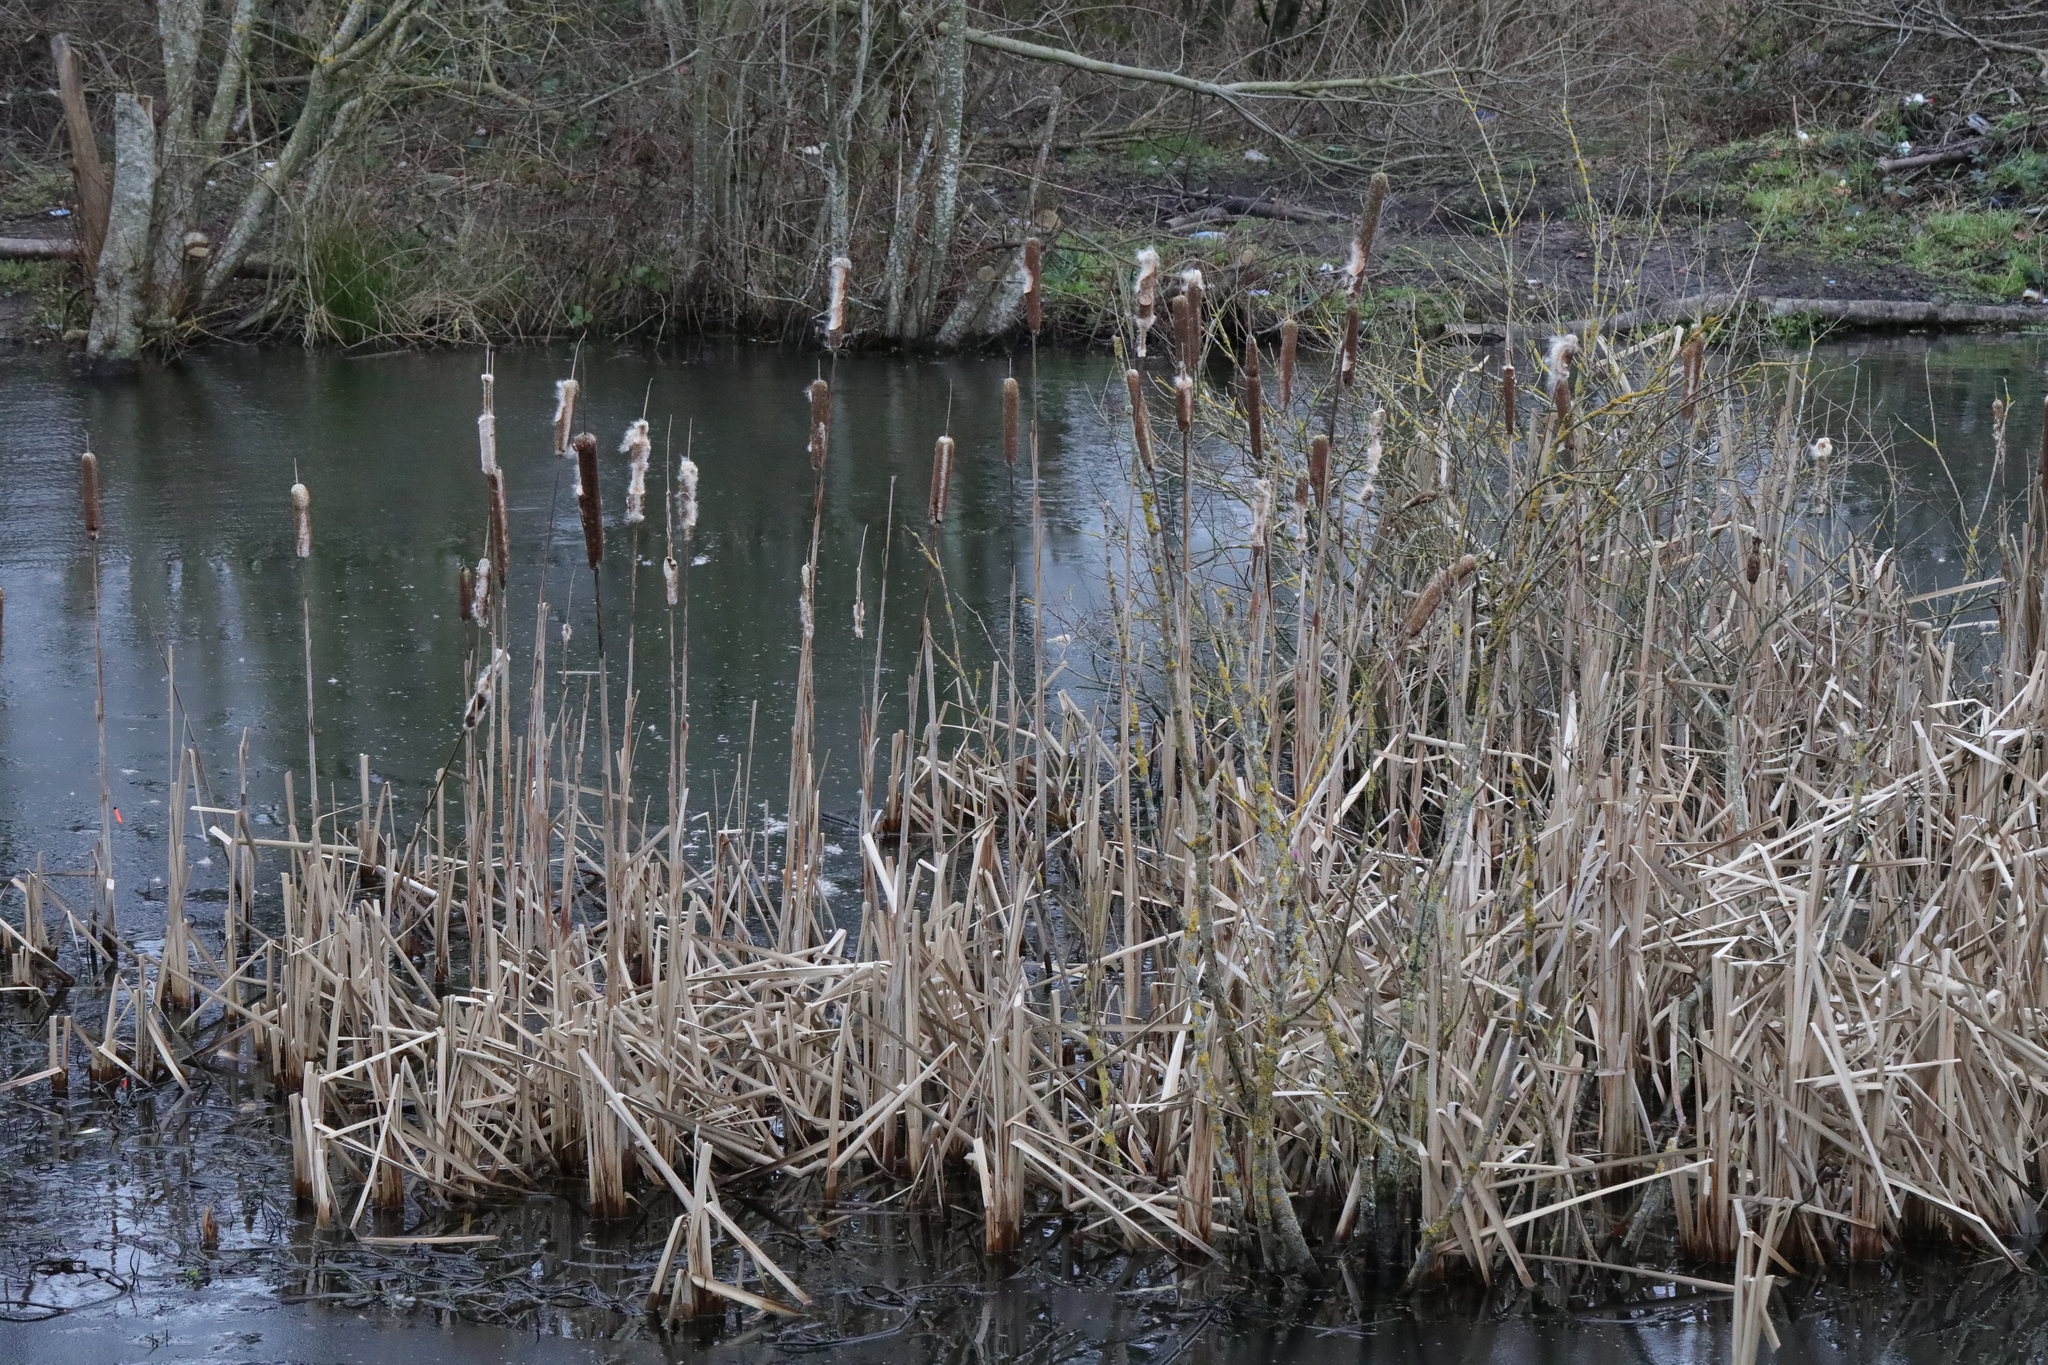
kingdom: Plantae
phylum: Tracheophyta
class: Liliopsida
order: Poales
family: Typhaceae
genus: Typha
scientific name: Typha latifolia
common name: Broadleaf cattail
